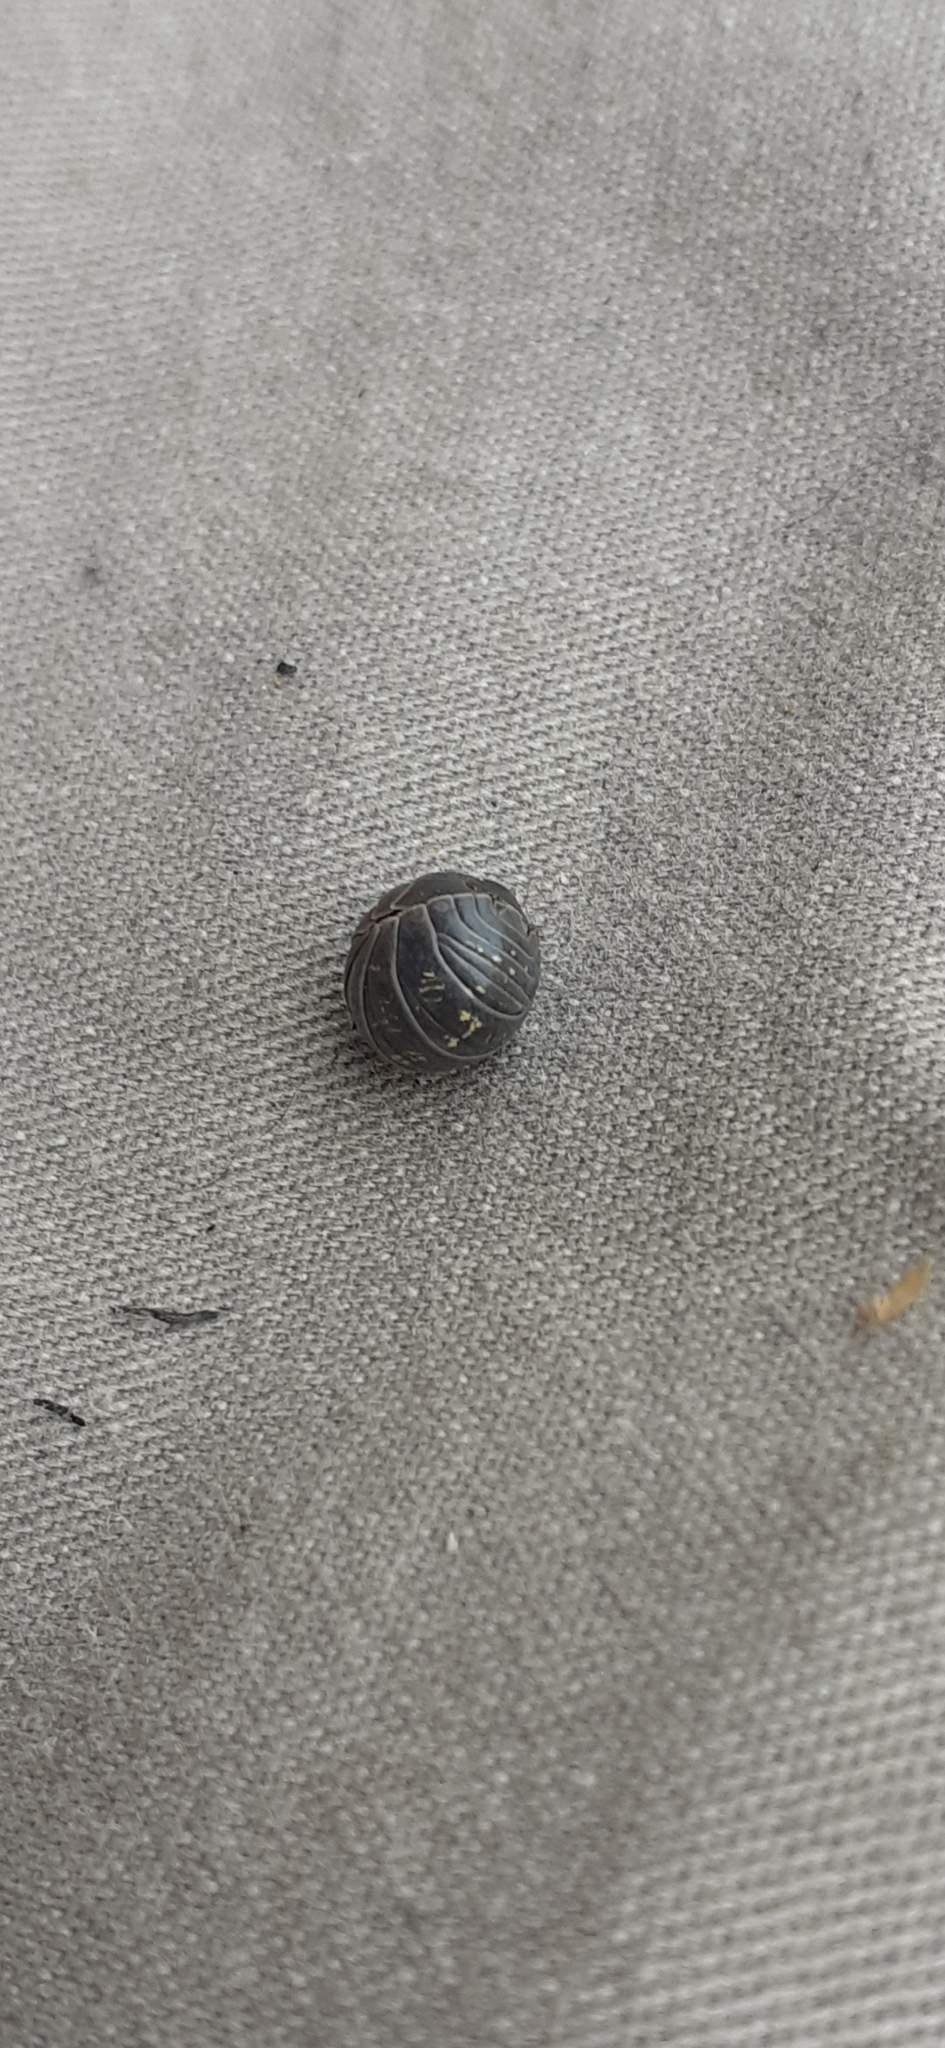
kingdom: Animalia
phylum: Arthropoda
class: Malacostraca
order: Isopoda
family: Armadillidiidae
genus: Armadillidium
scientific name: Armadillidium vulgare
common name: Common pill woodlouse
